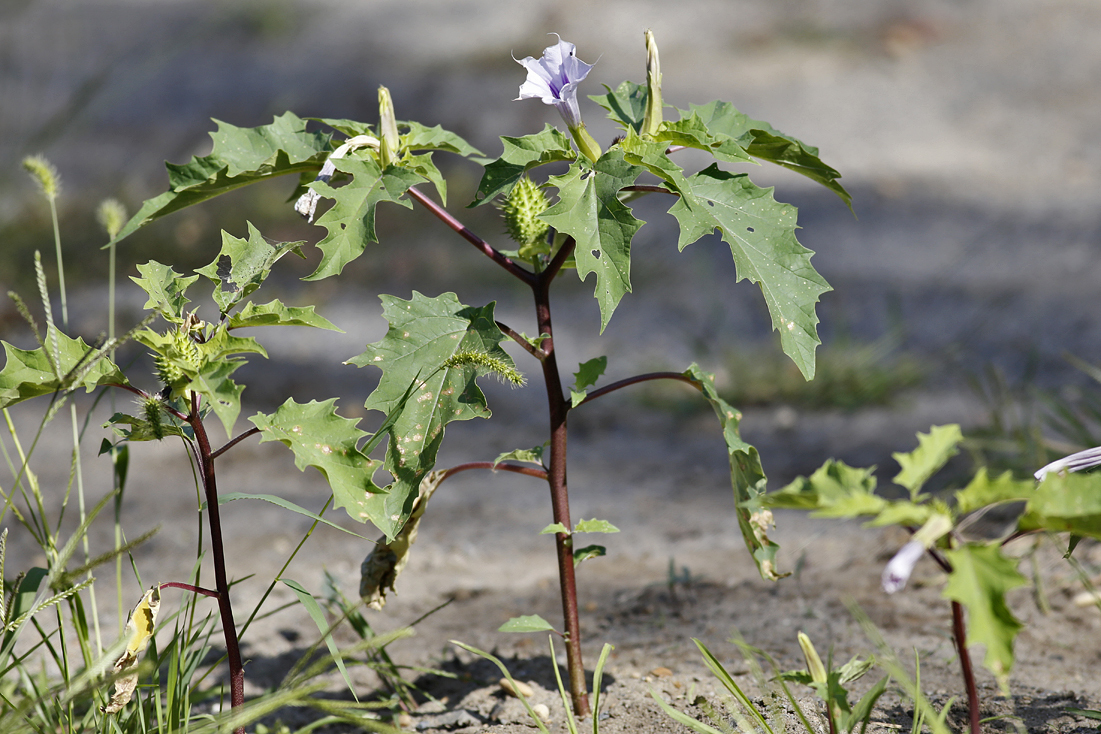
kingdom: Plantae
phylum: Tracheophyta
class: Magnoliopsida
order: Solanales
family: Solanaceae
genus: Datura
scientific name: Datura stramonium
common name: Thorn-apple
